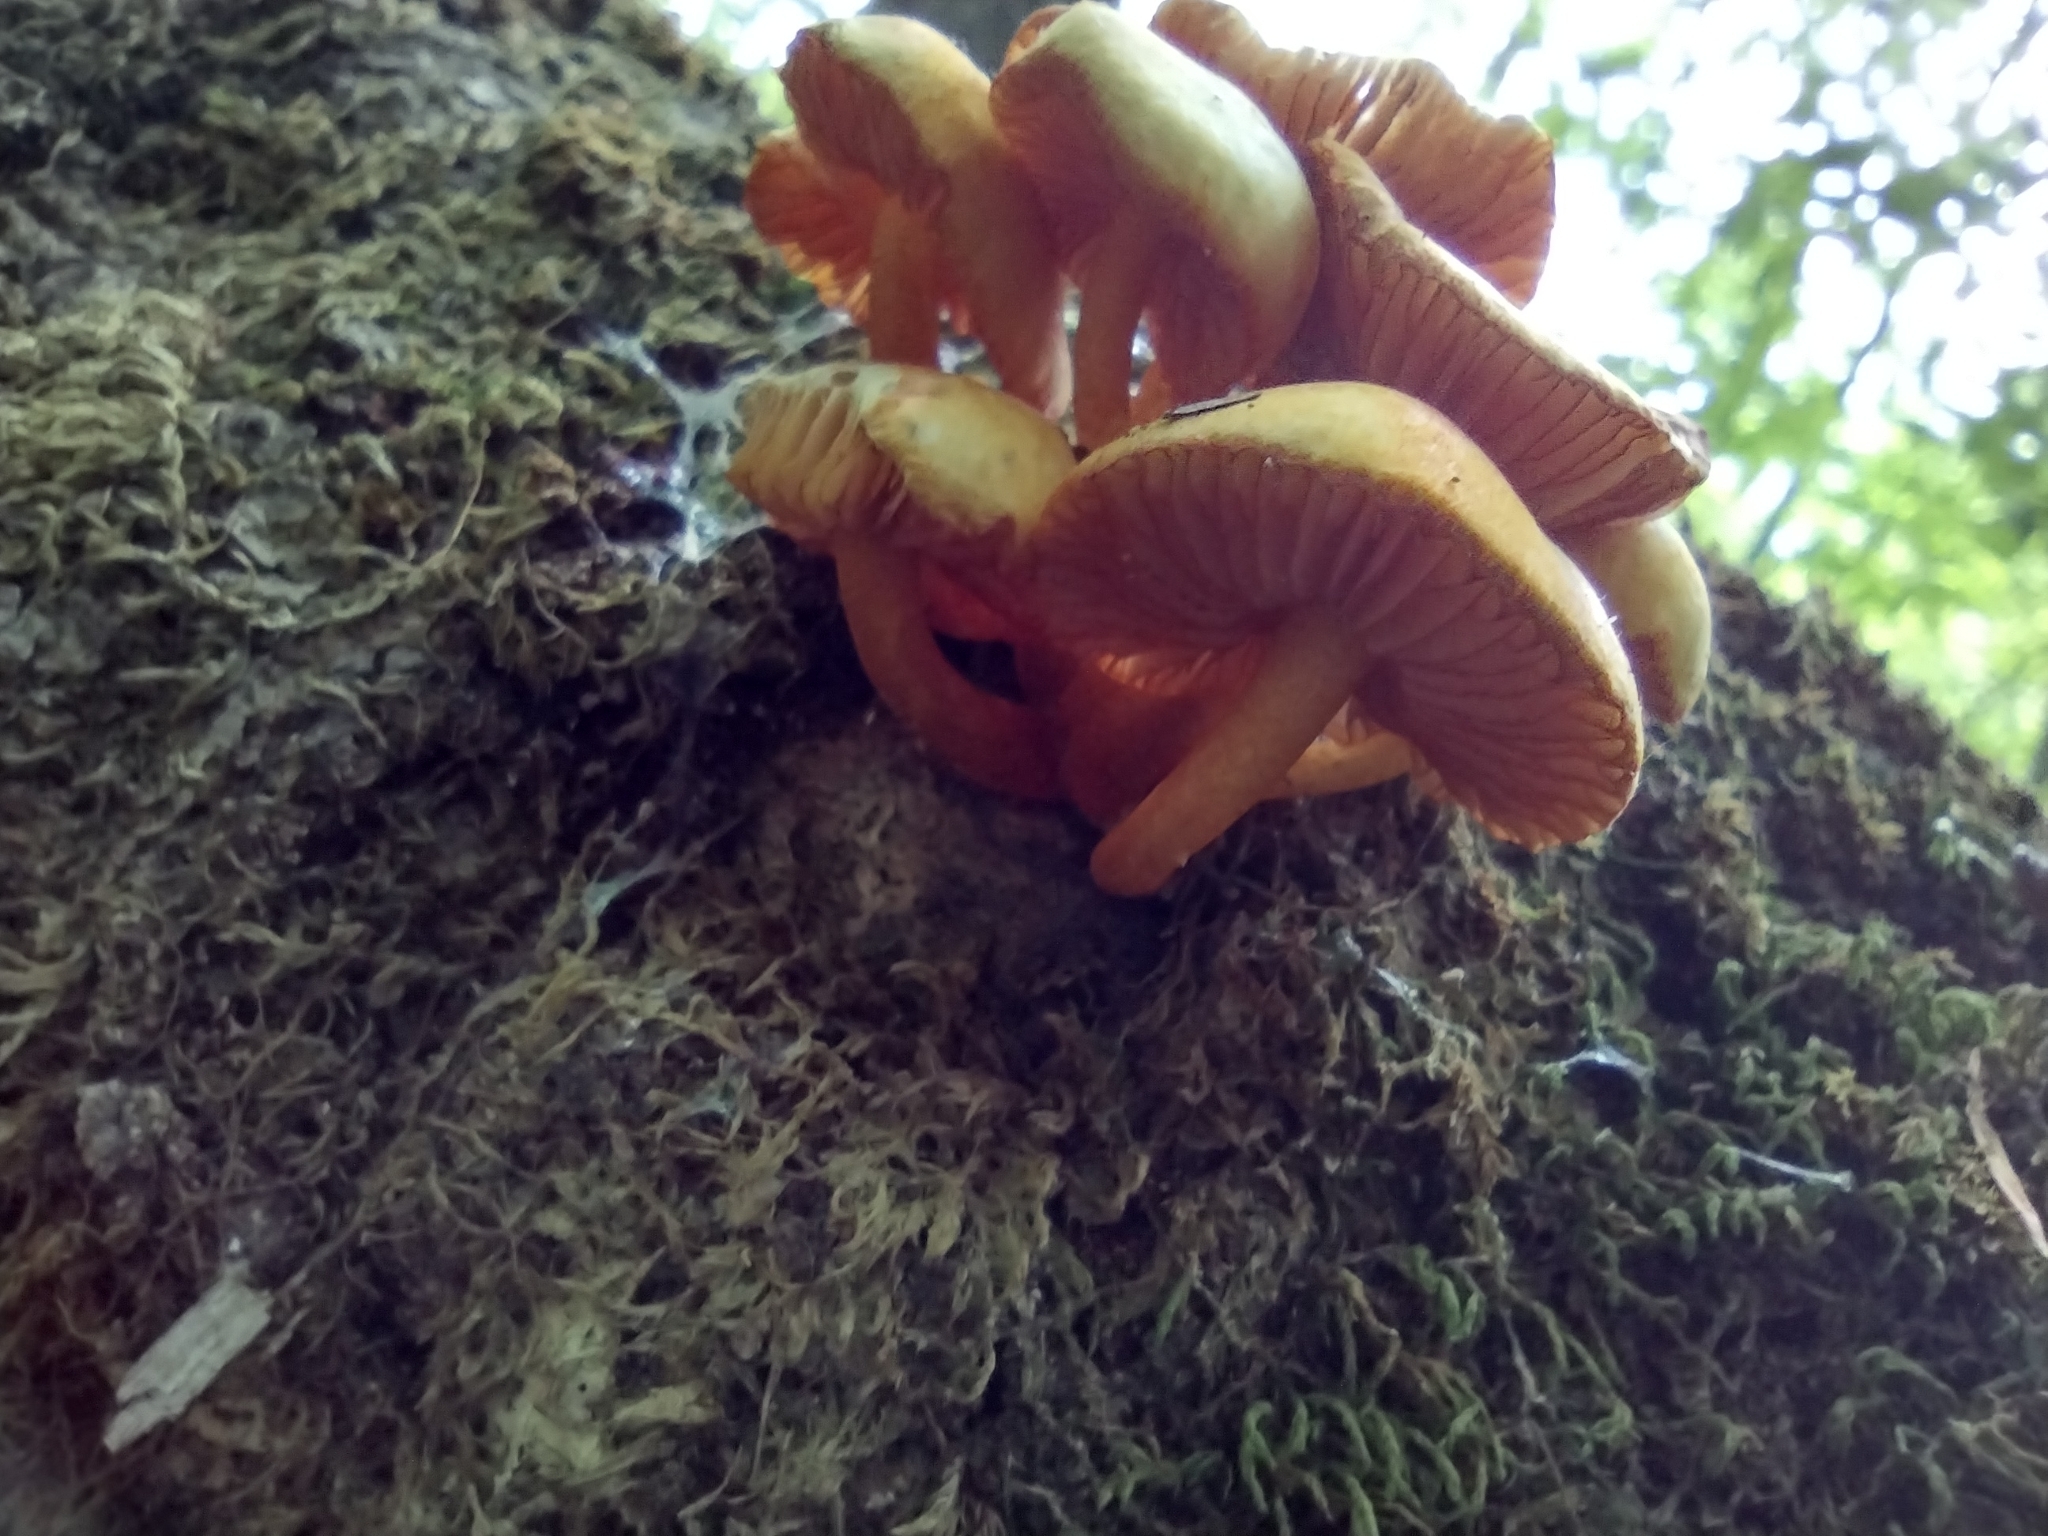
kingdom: Fungi
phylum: Basidiomycota
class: Agaricomycetes
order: Agaricales
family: Mycenaceae
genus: Mycena
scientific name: Mycena leaiana
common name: Orange mycena
